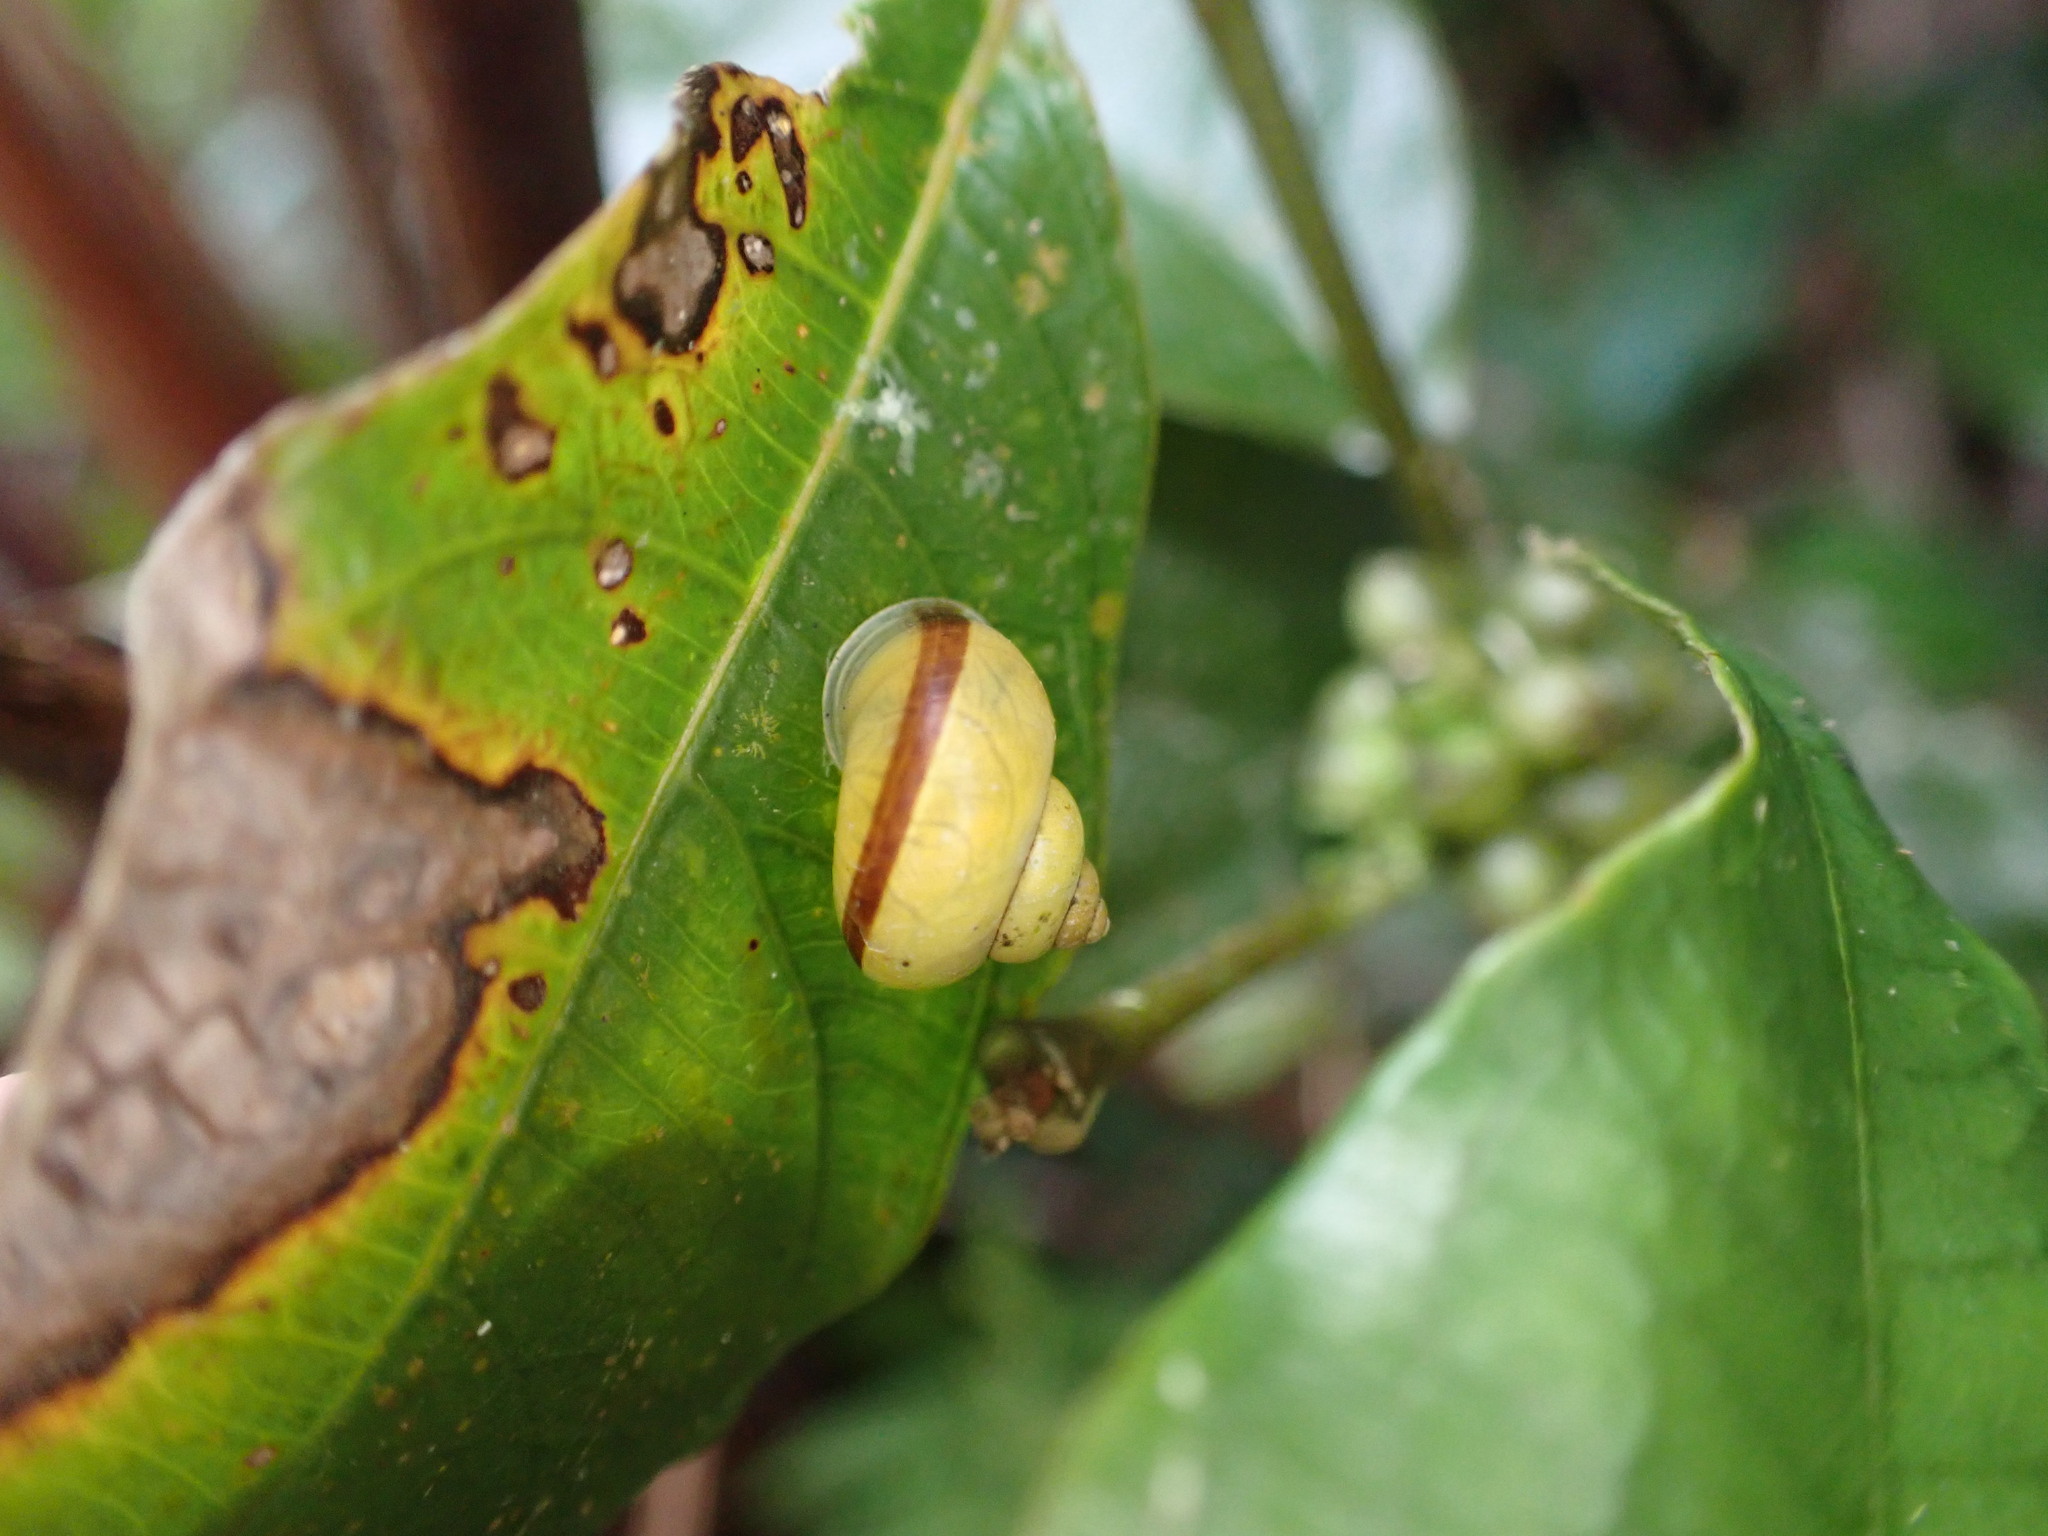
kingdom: Animalia
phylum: Mollusca
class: Gastropoda
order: Architaenioglossa
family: Cyclophoridae
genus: Leptopoma
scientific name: Leptopoma tigris
